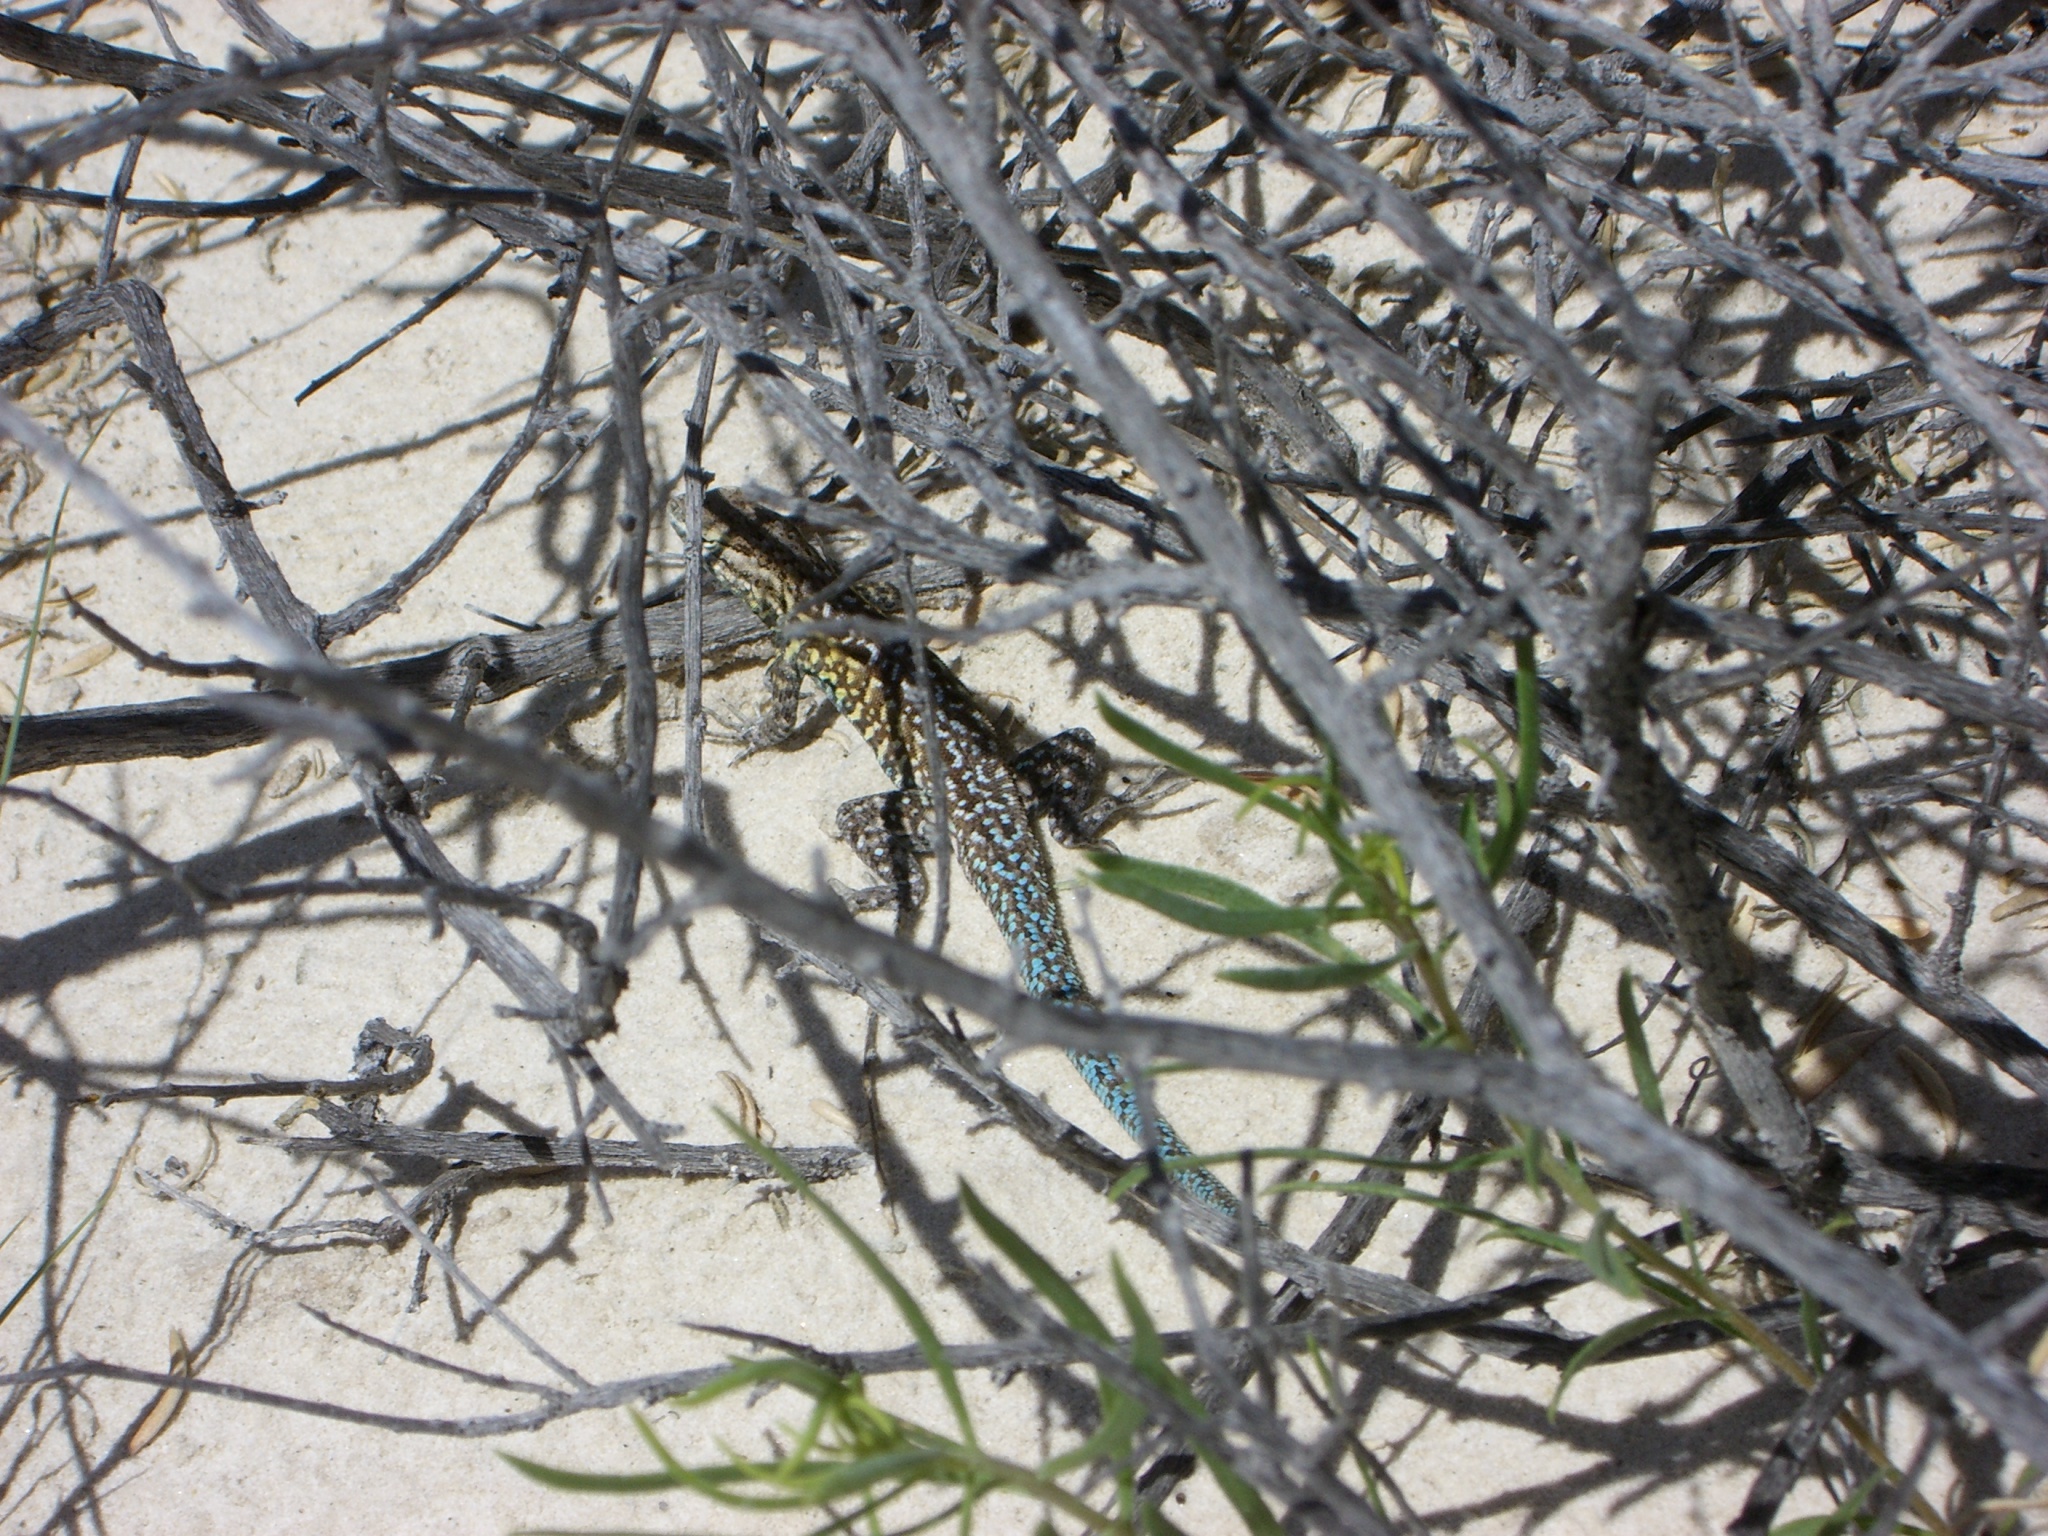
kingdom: Animalia
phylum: Chordata
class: Squamata
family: Phrynosomatidae
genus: Uta
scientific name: Uta stansburiana
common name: Side-blotched lizard
